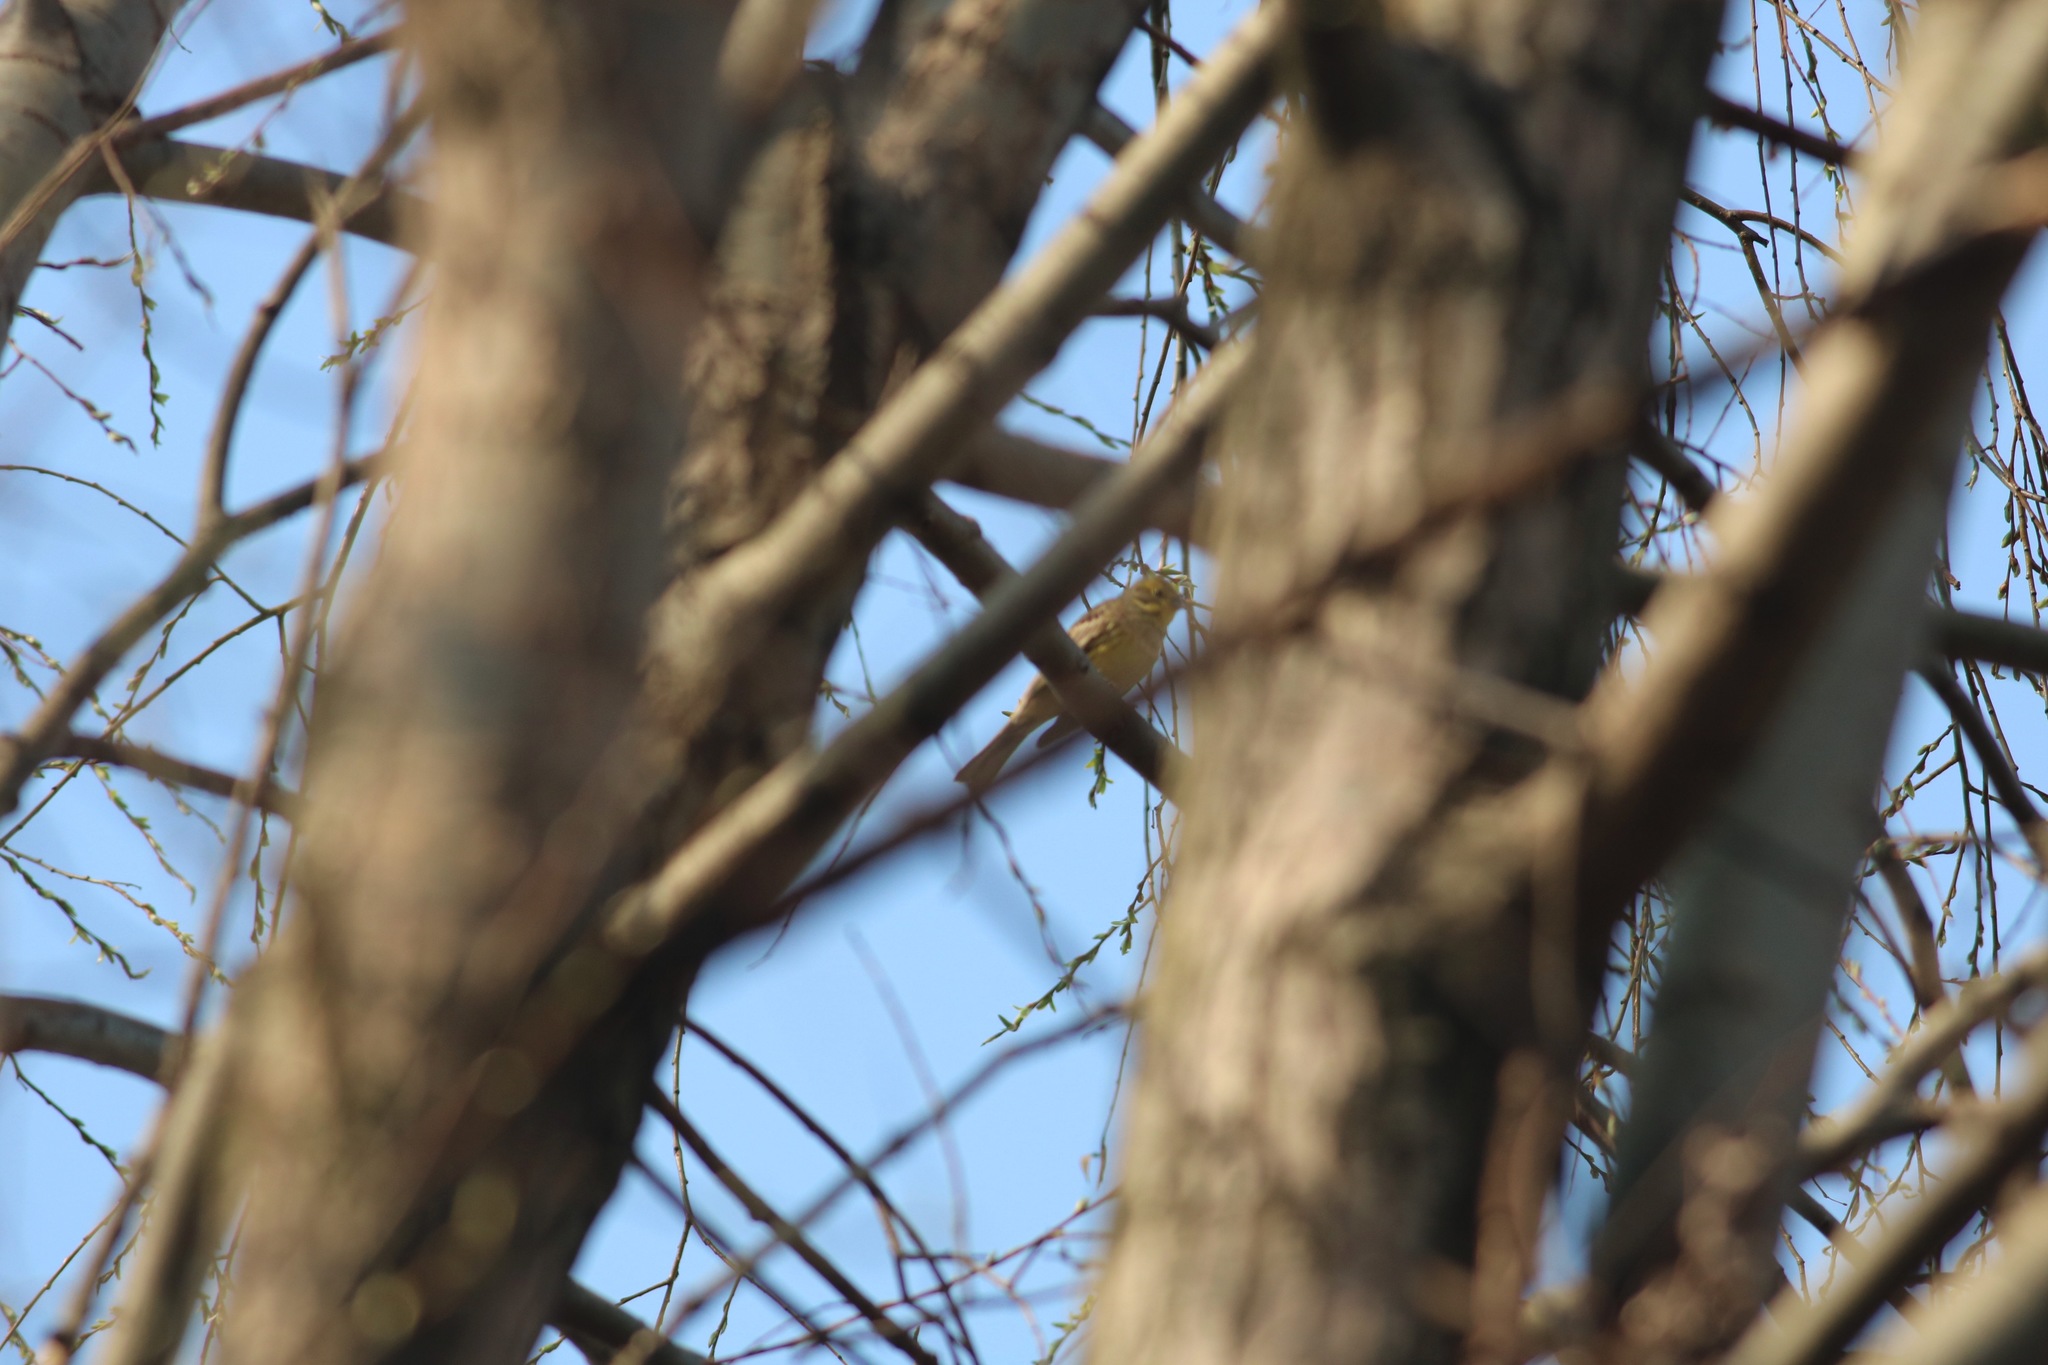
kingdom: Animalia
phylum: Chordata
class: Aves
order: Passeriformes
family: Emberizidae
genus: Emberiza
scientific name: Emberiza citrinella
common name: Yellowhammer
